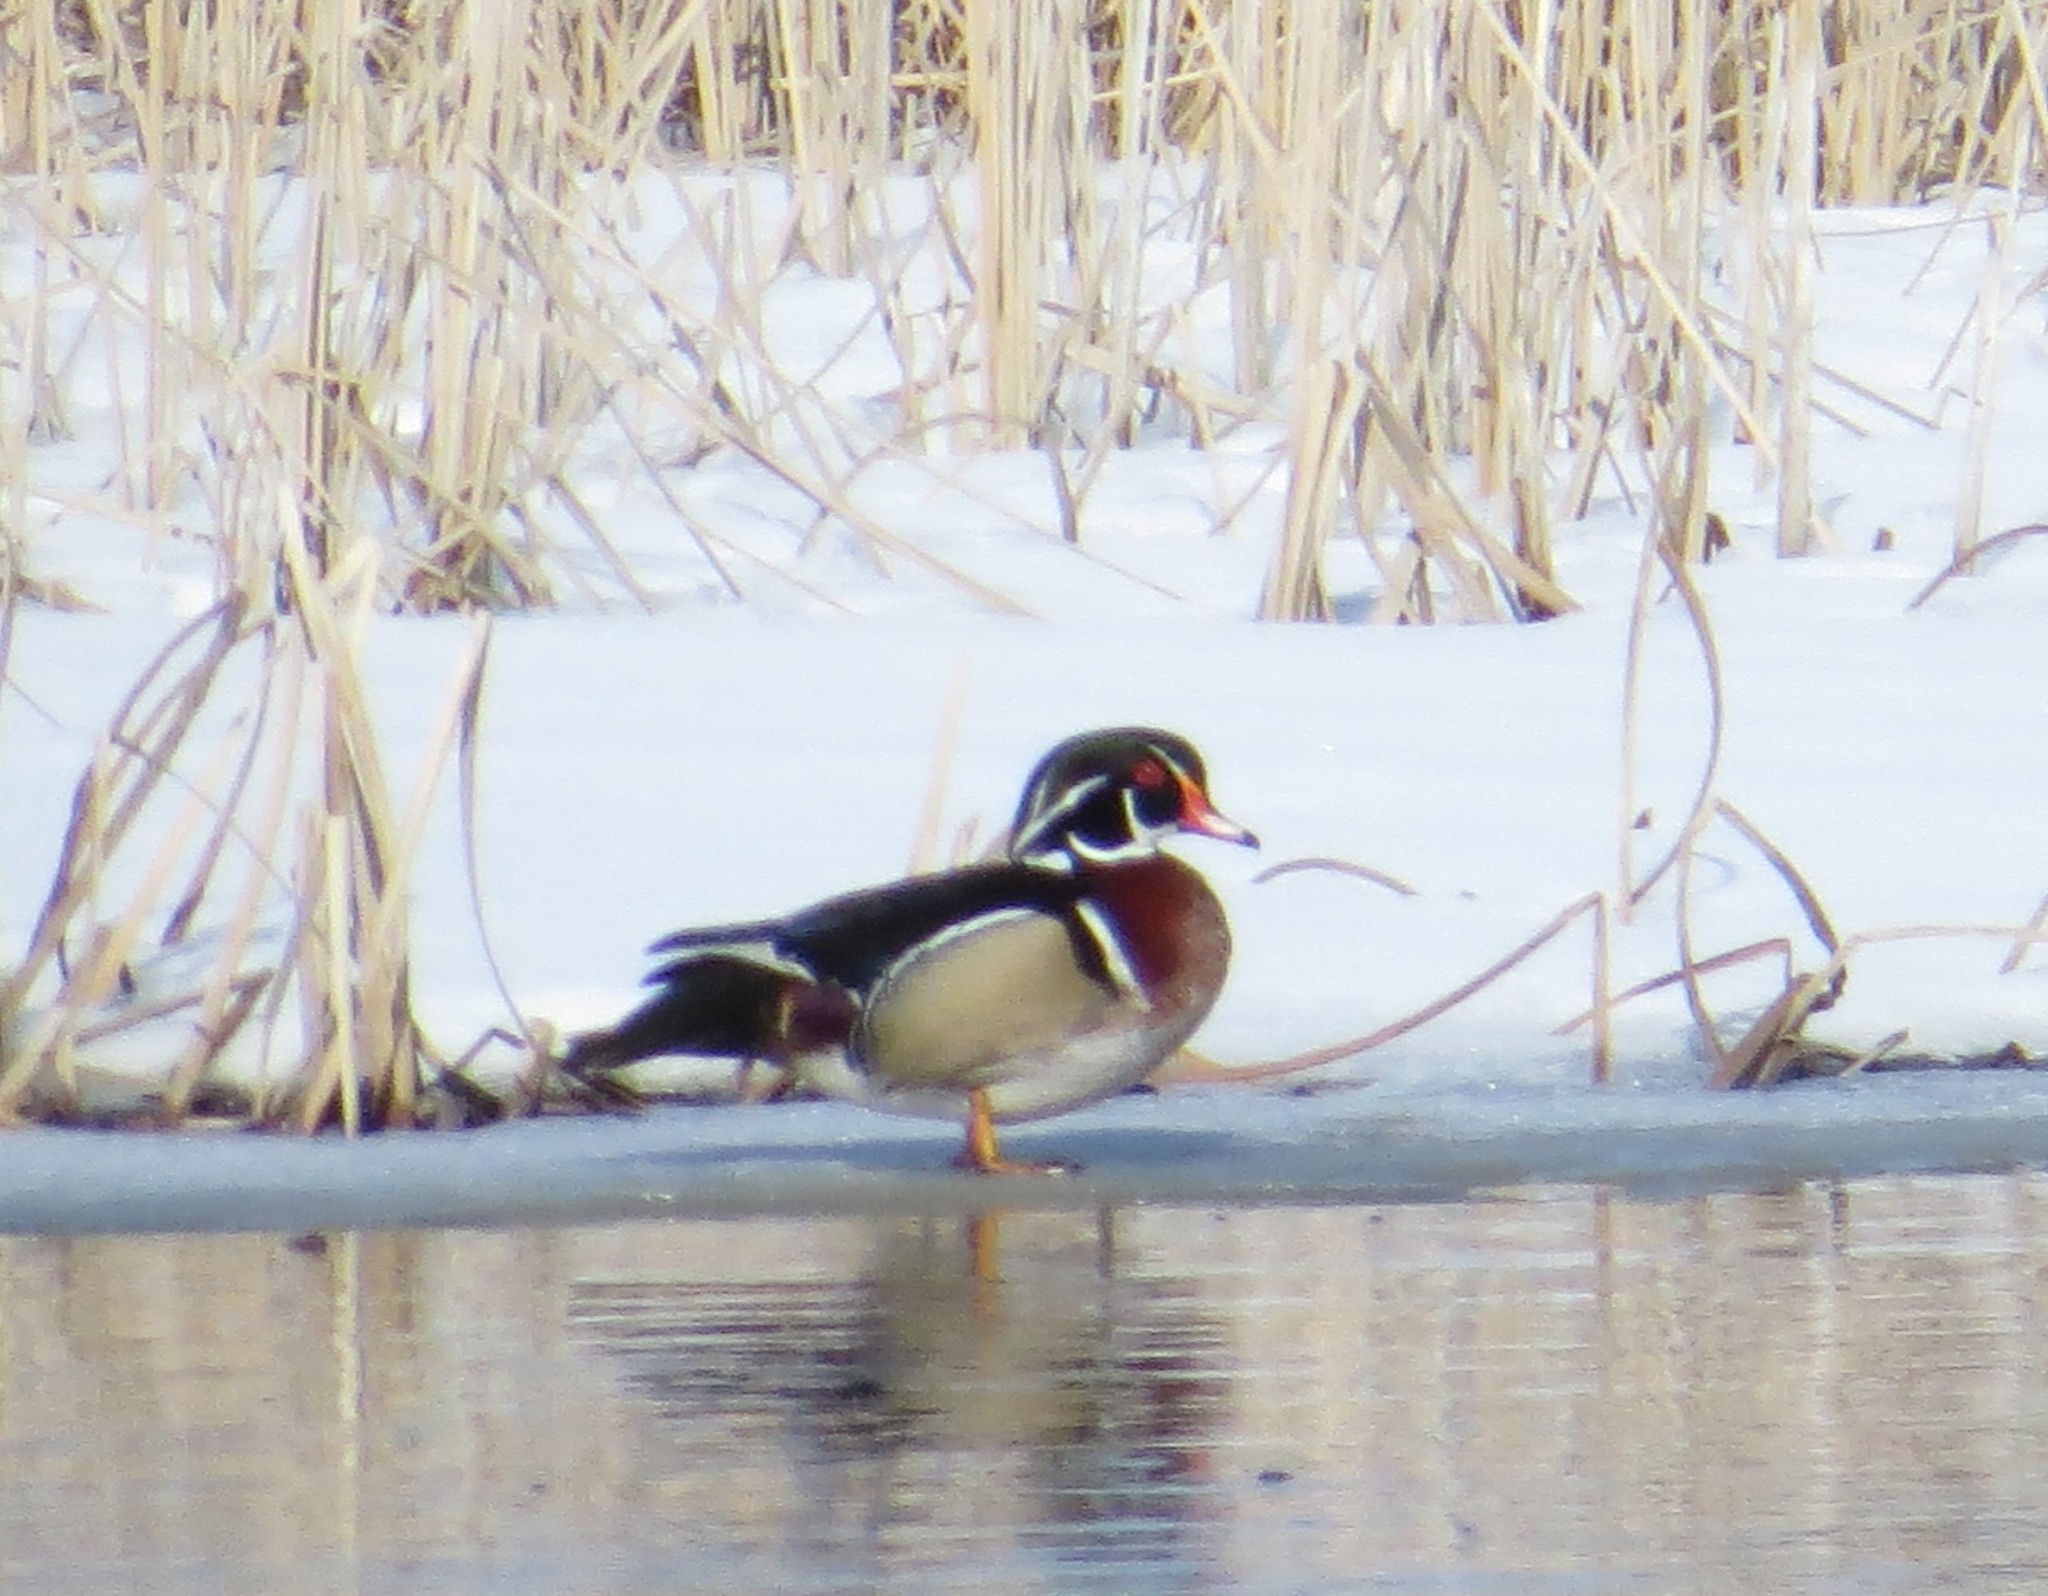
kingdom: Animalia
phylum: Chordata
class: Aves
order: Anseriformes
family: Anatidae
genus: Aix
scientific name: Aix sponsa
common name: Wood duck
